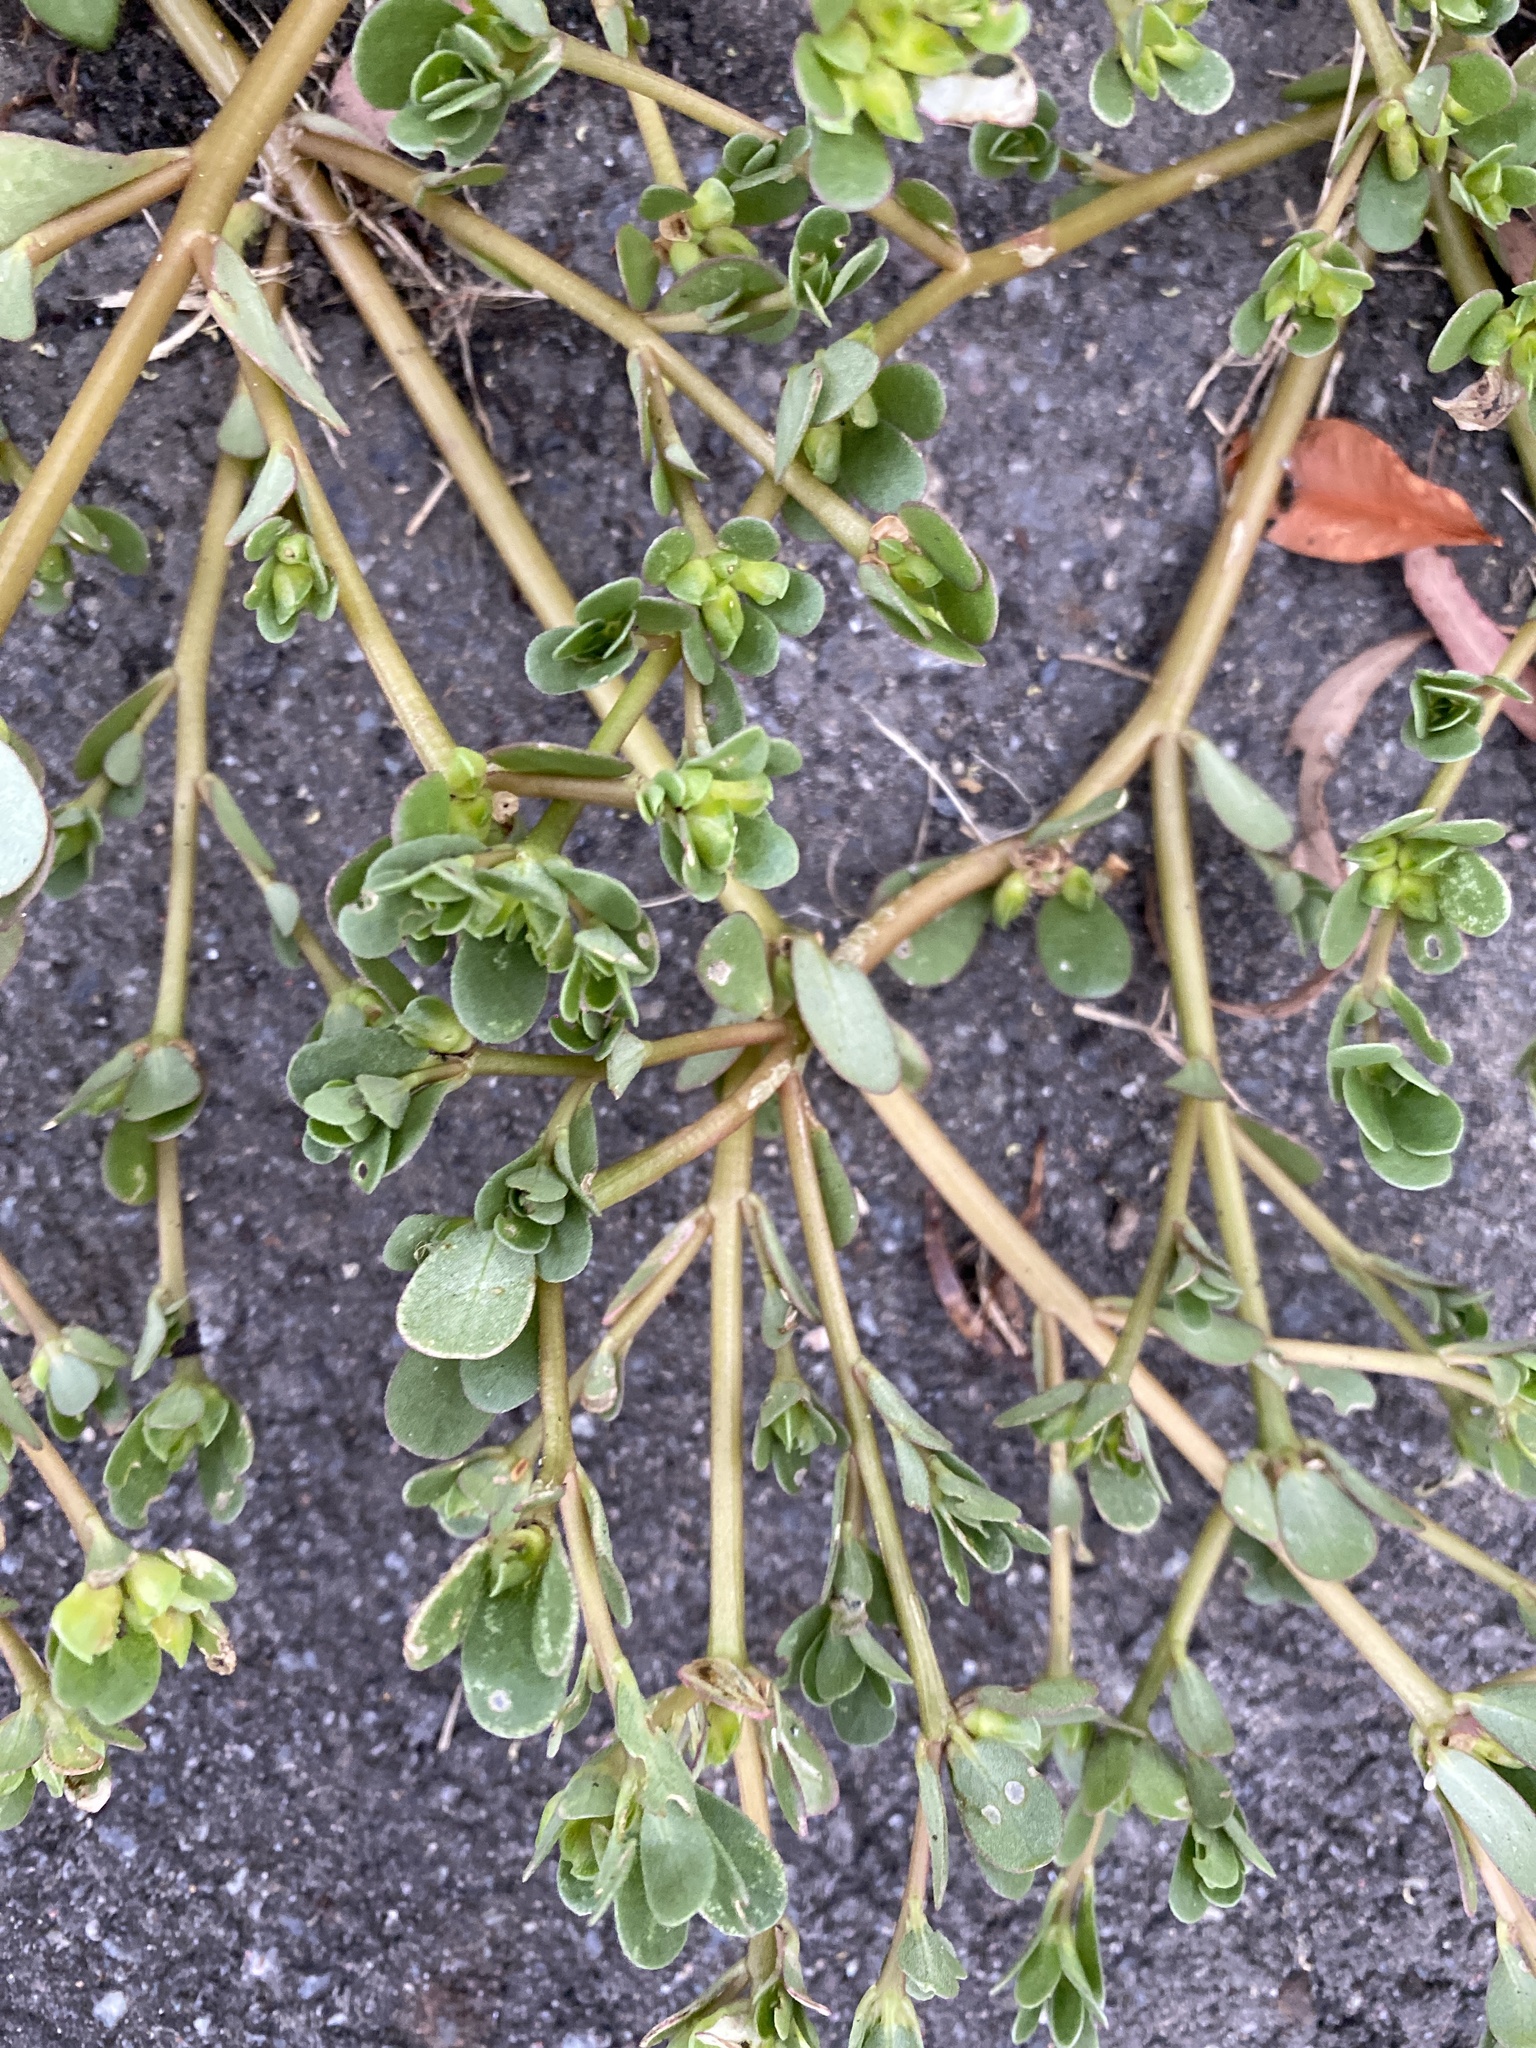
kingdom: Plantae
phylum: Tracheophyta
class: Magnoliopsida
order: Caryophyllales
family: Portulacaceae
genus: Portulaca
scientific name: Portulaca oleracea
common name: Common purslane
